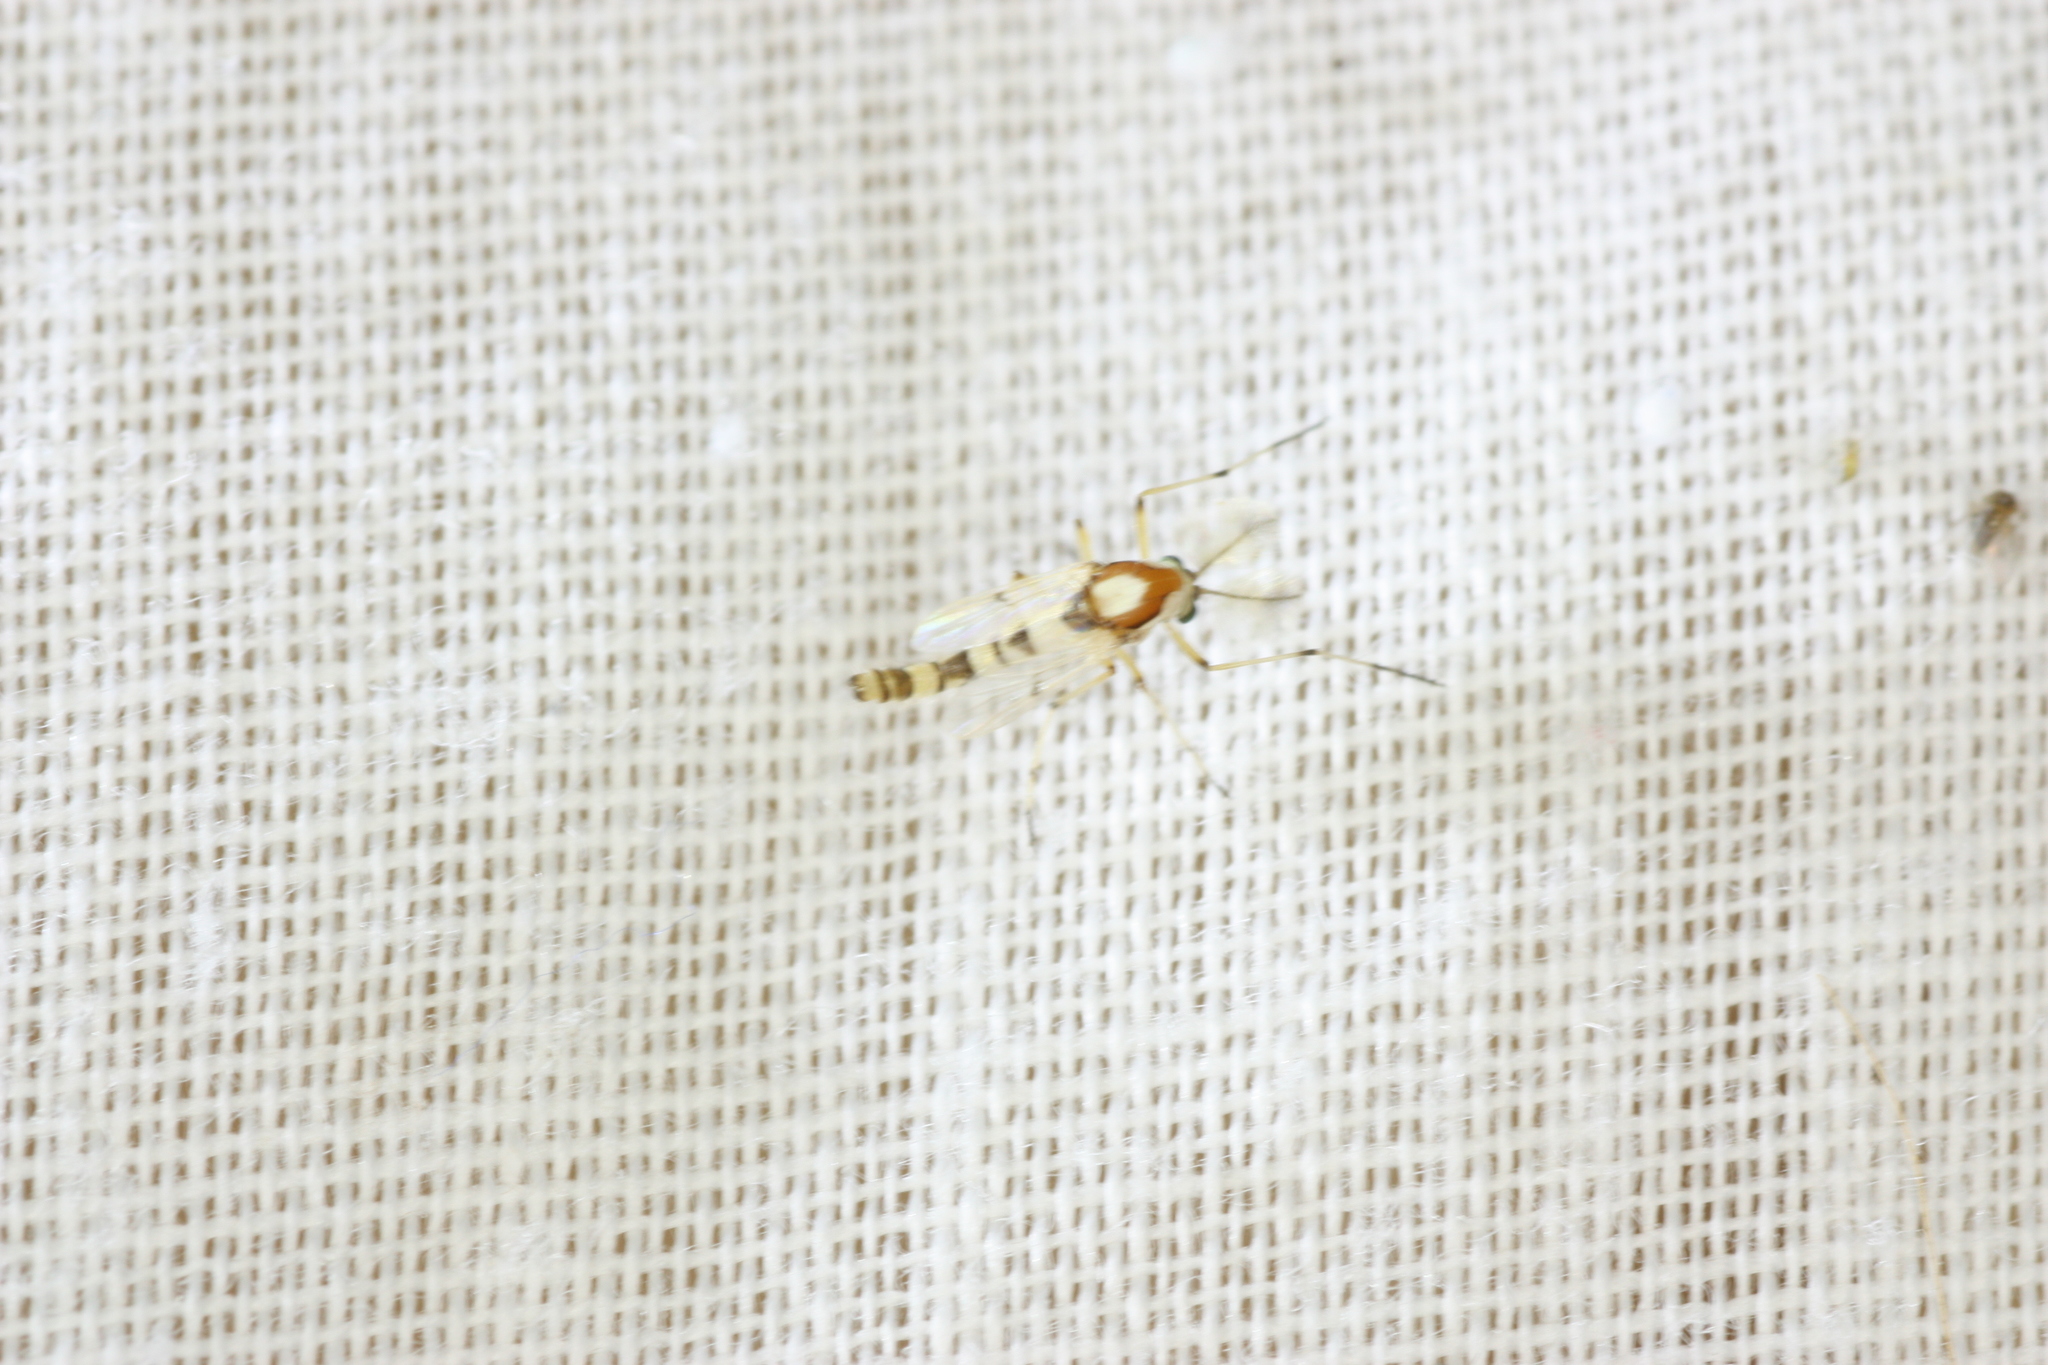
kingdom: Animalia
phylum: Arthropoda
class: Insecta
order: Diptera
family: Chironomidae
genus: Coelotanypus
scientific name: Coelotanypus tricolor
